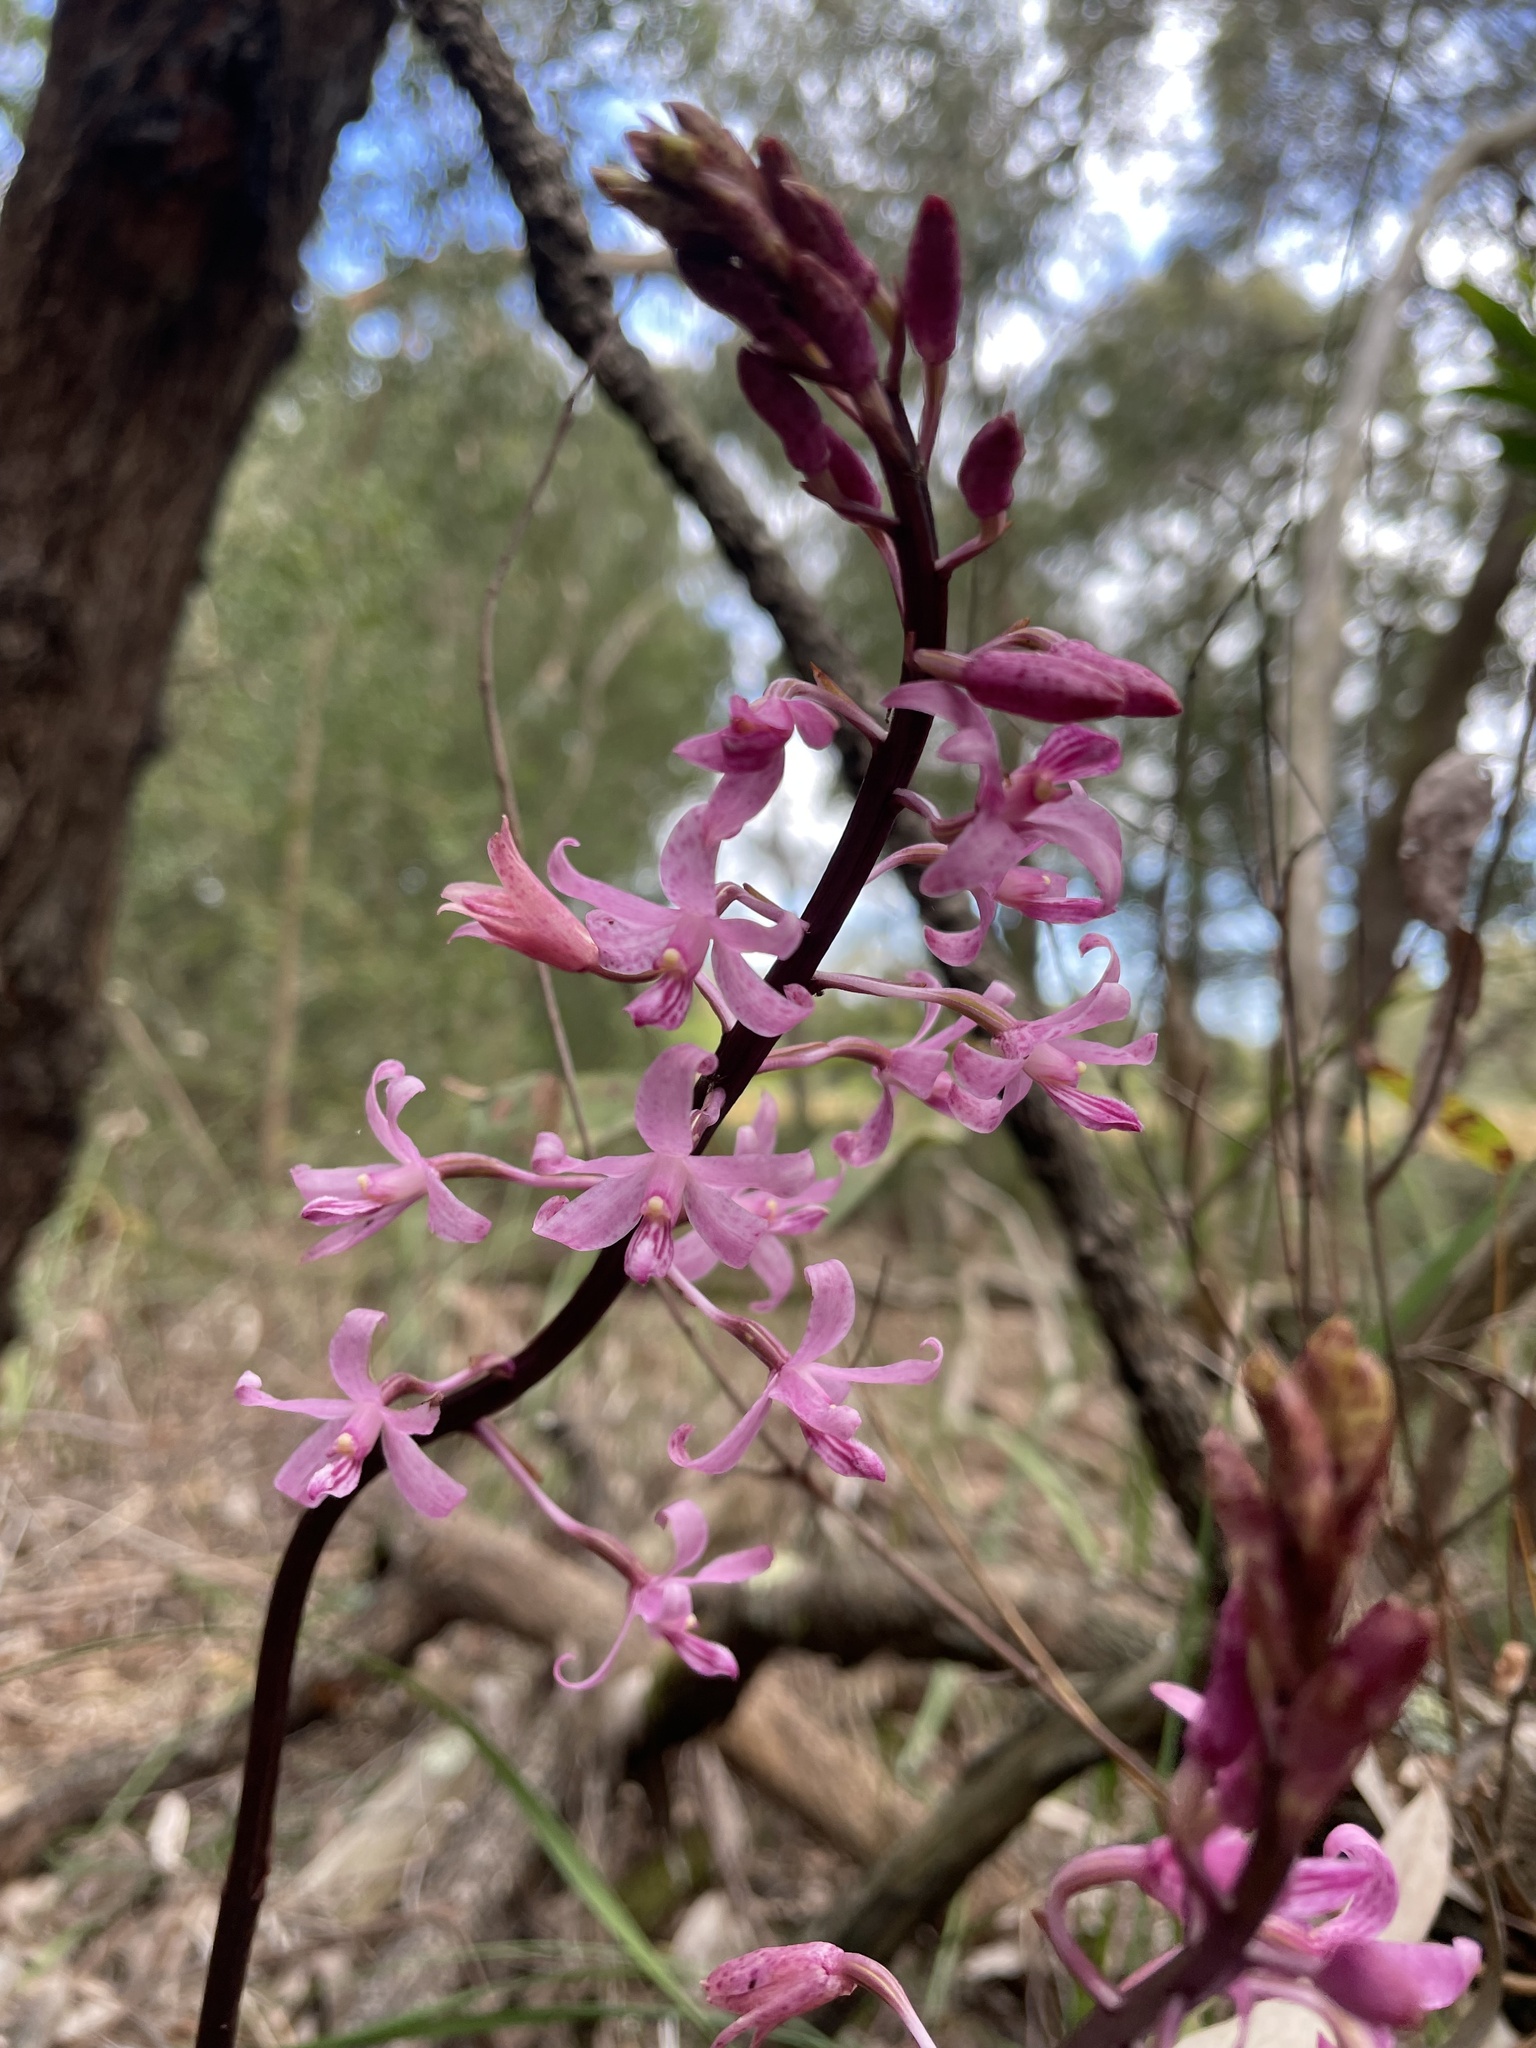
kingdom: Plantae
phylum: Tracheophyta
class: Liliopsida
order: Asparagales
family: Orchidaceae
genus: Dipodium
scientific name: Dipodium roseum
